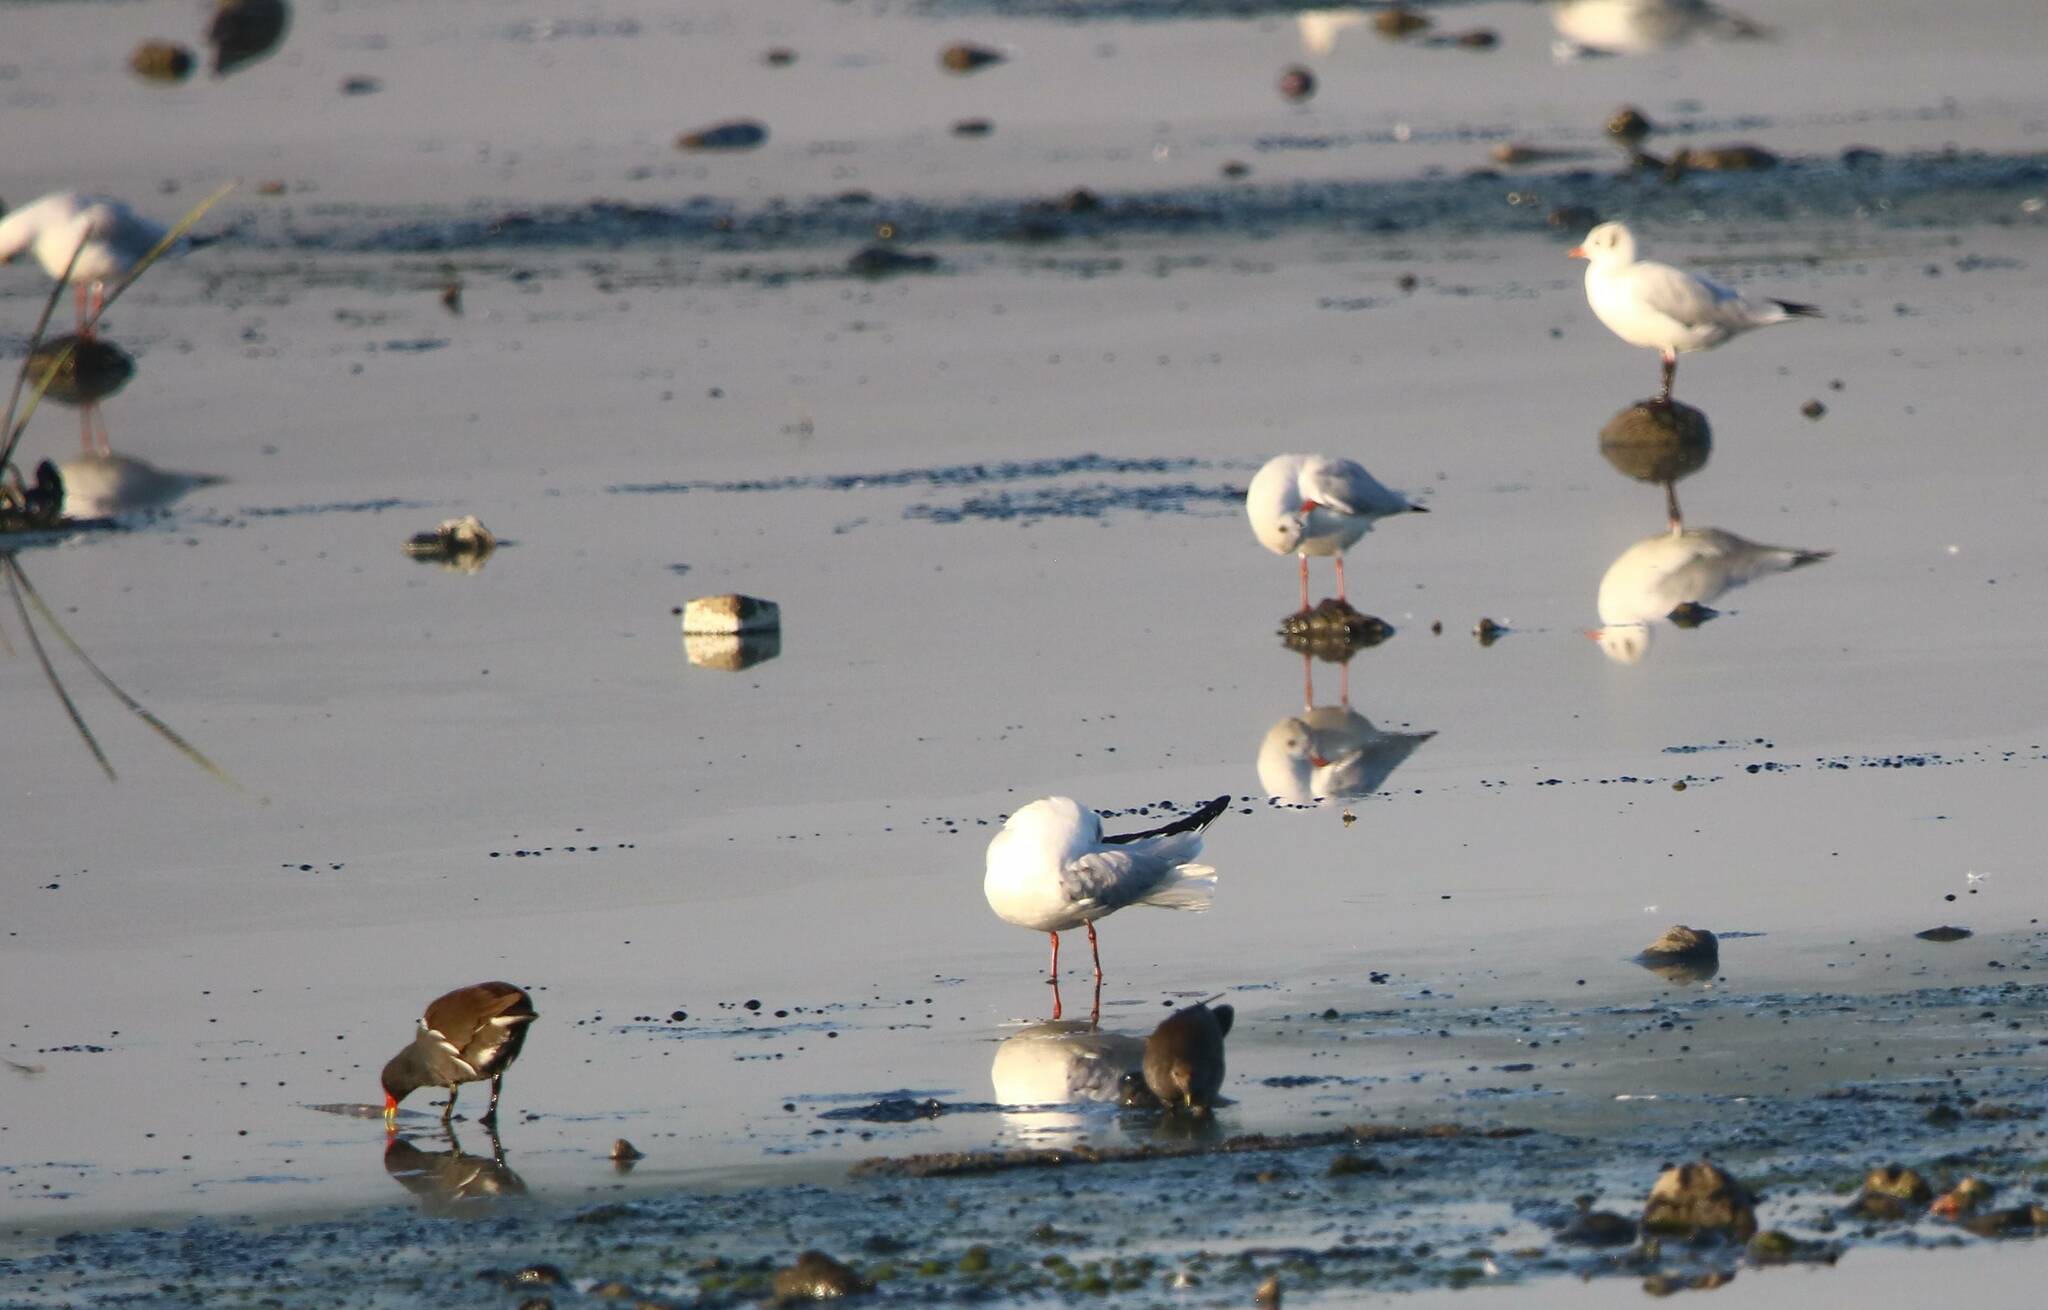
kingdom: Animalia
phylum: Chordata
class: Aves
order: Charadriiformes
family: Laridae
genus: Chroicocephalus
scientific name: Chroicocephalus ridibundus
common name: Black-headed gull
